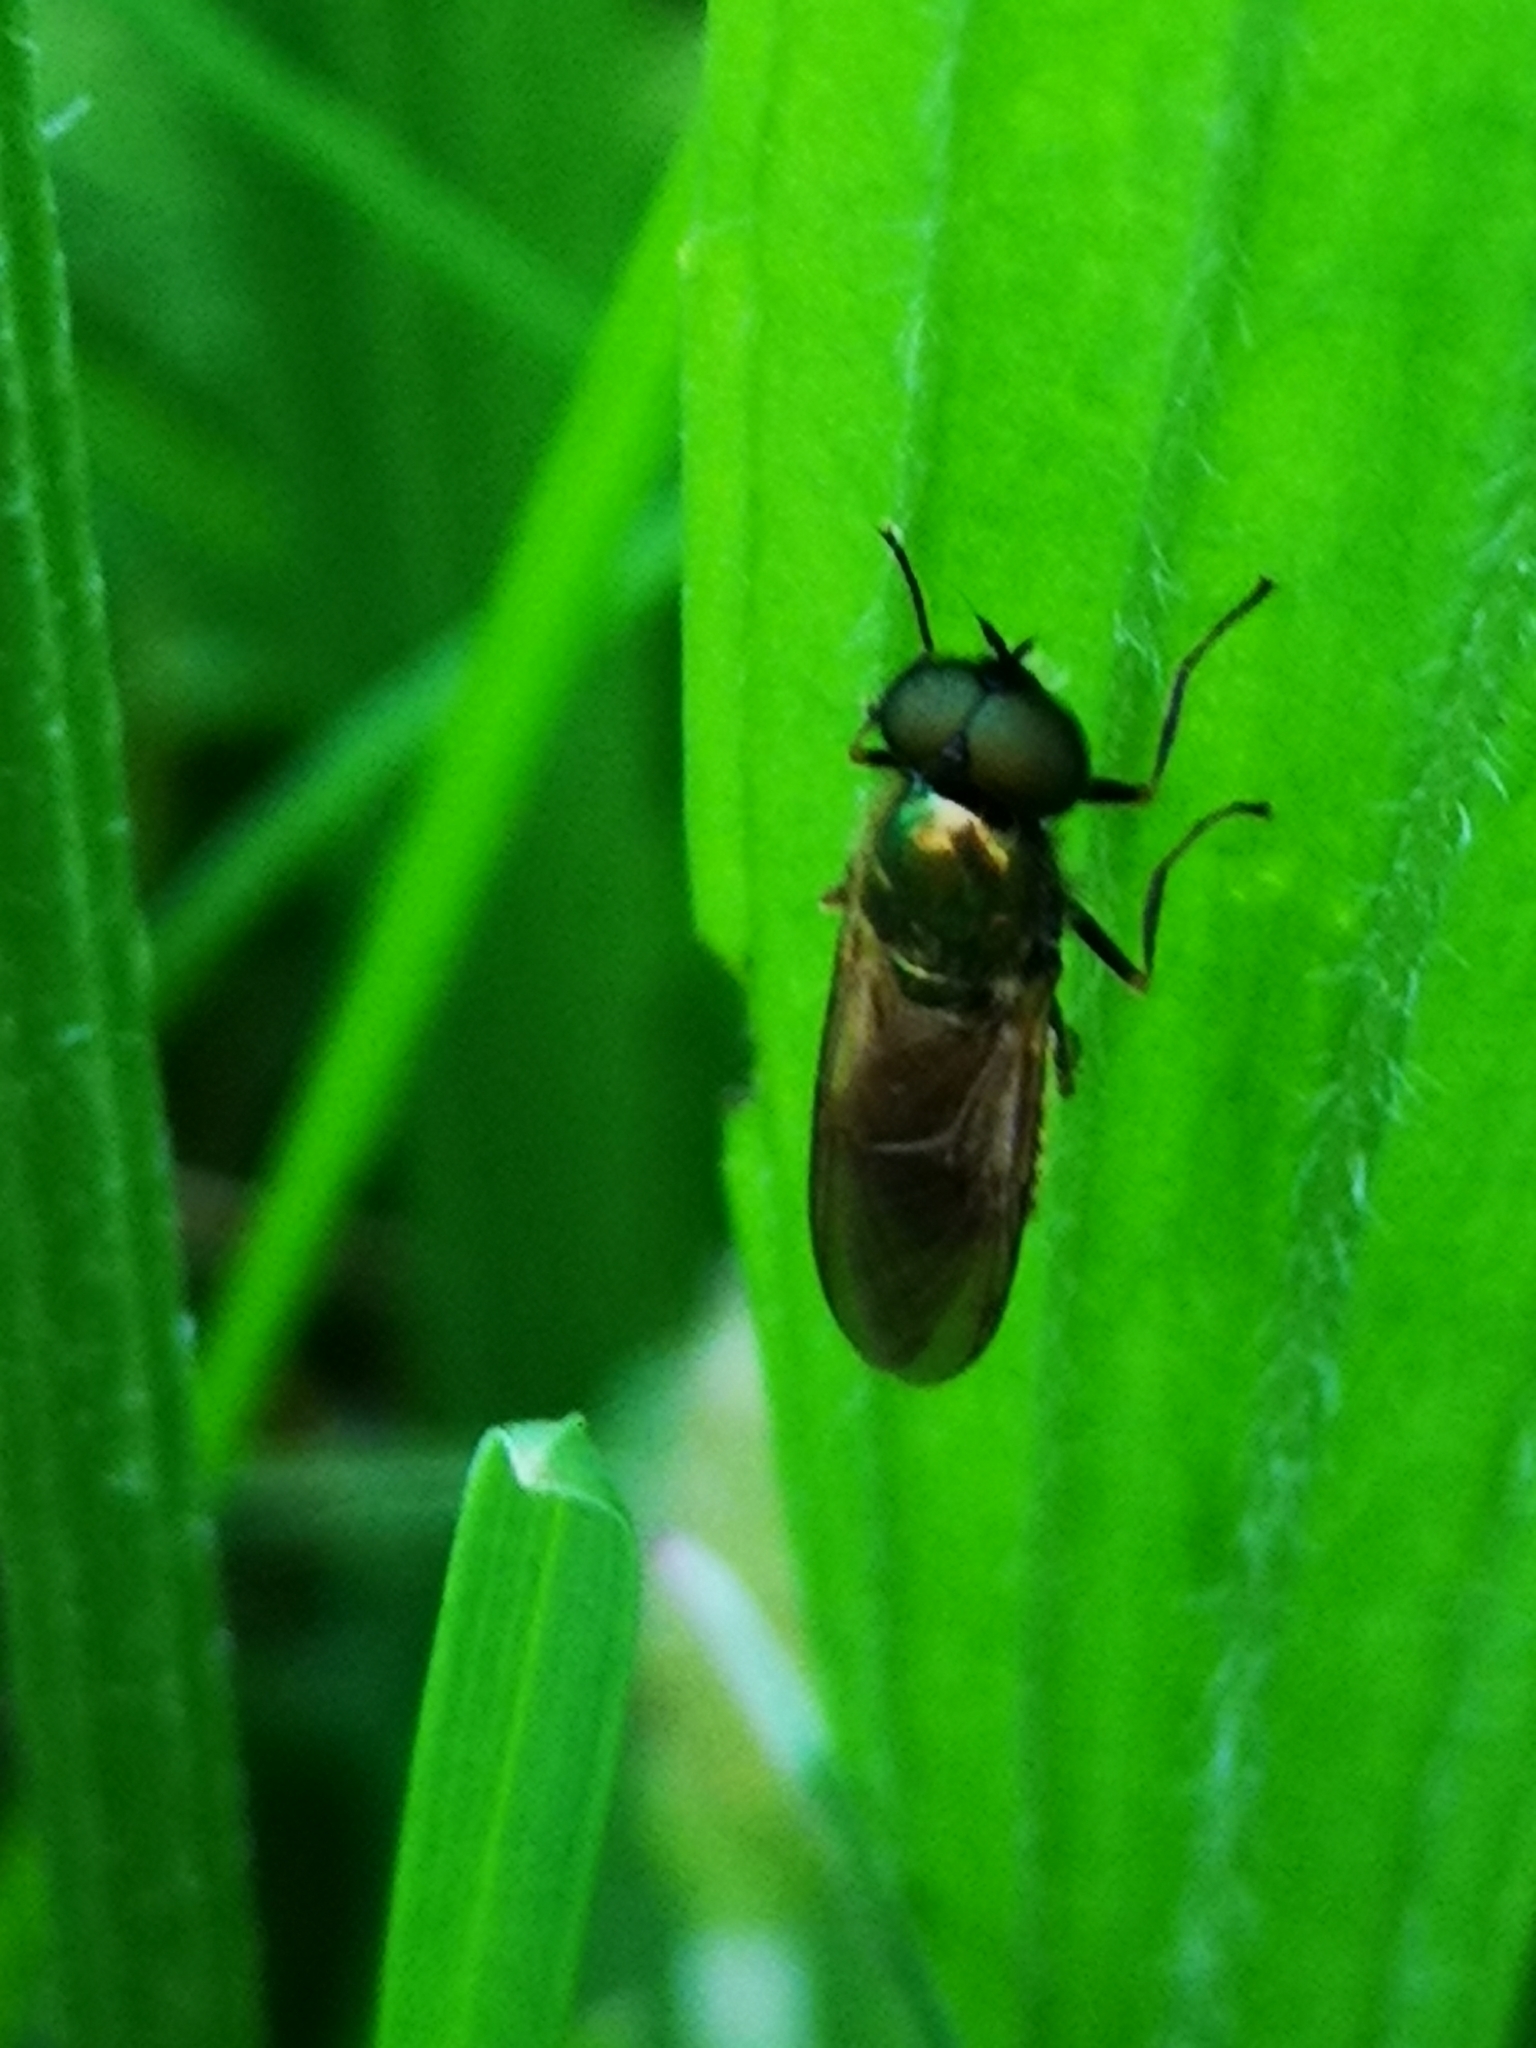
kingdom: Animalia
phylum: Arthropoda
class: Insecta
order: Diptera
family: Stratiomyidae
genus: Chloromyia
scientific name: Chloromyia formosa
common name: Soldier fly
